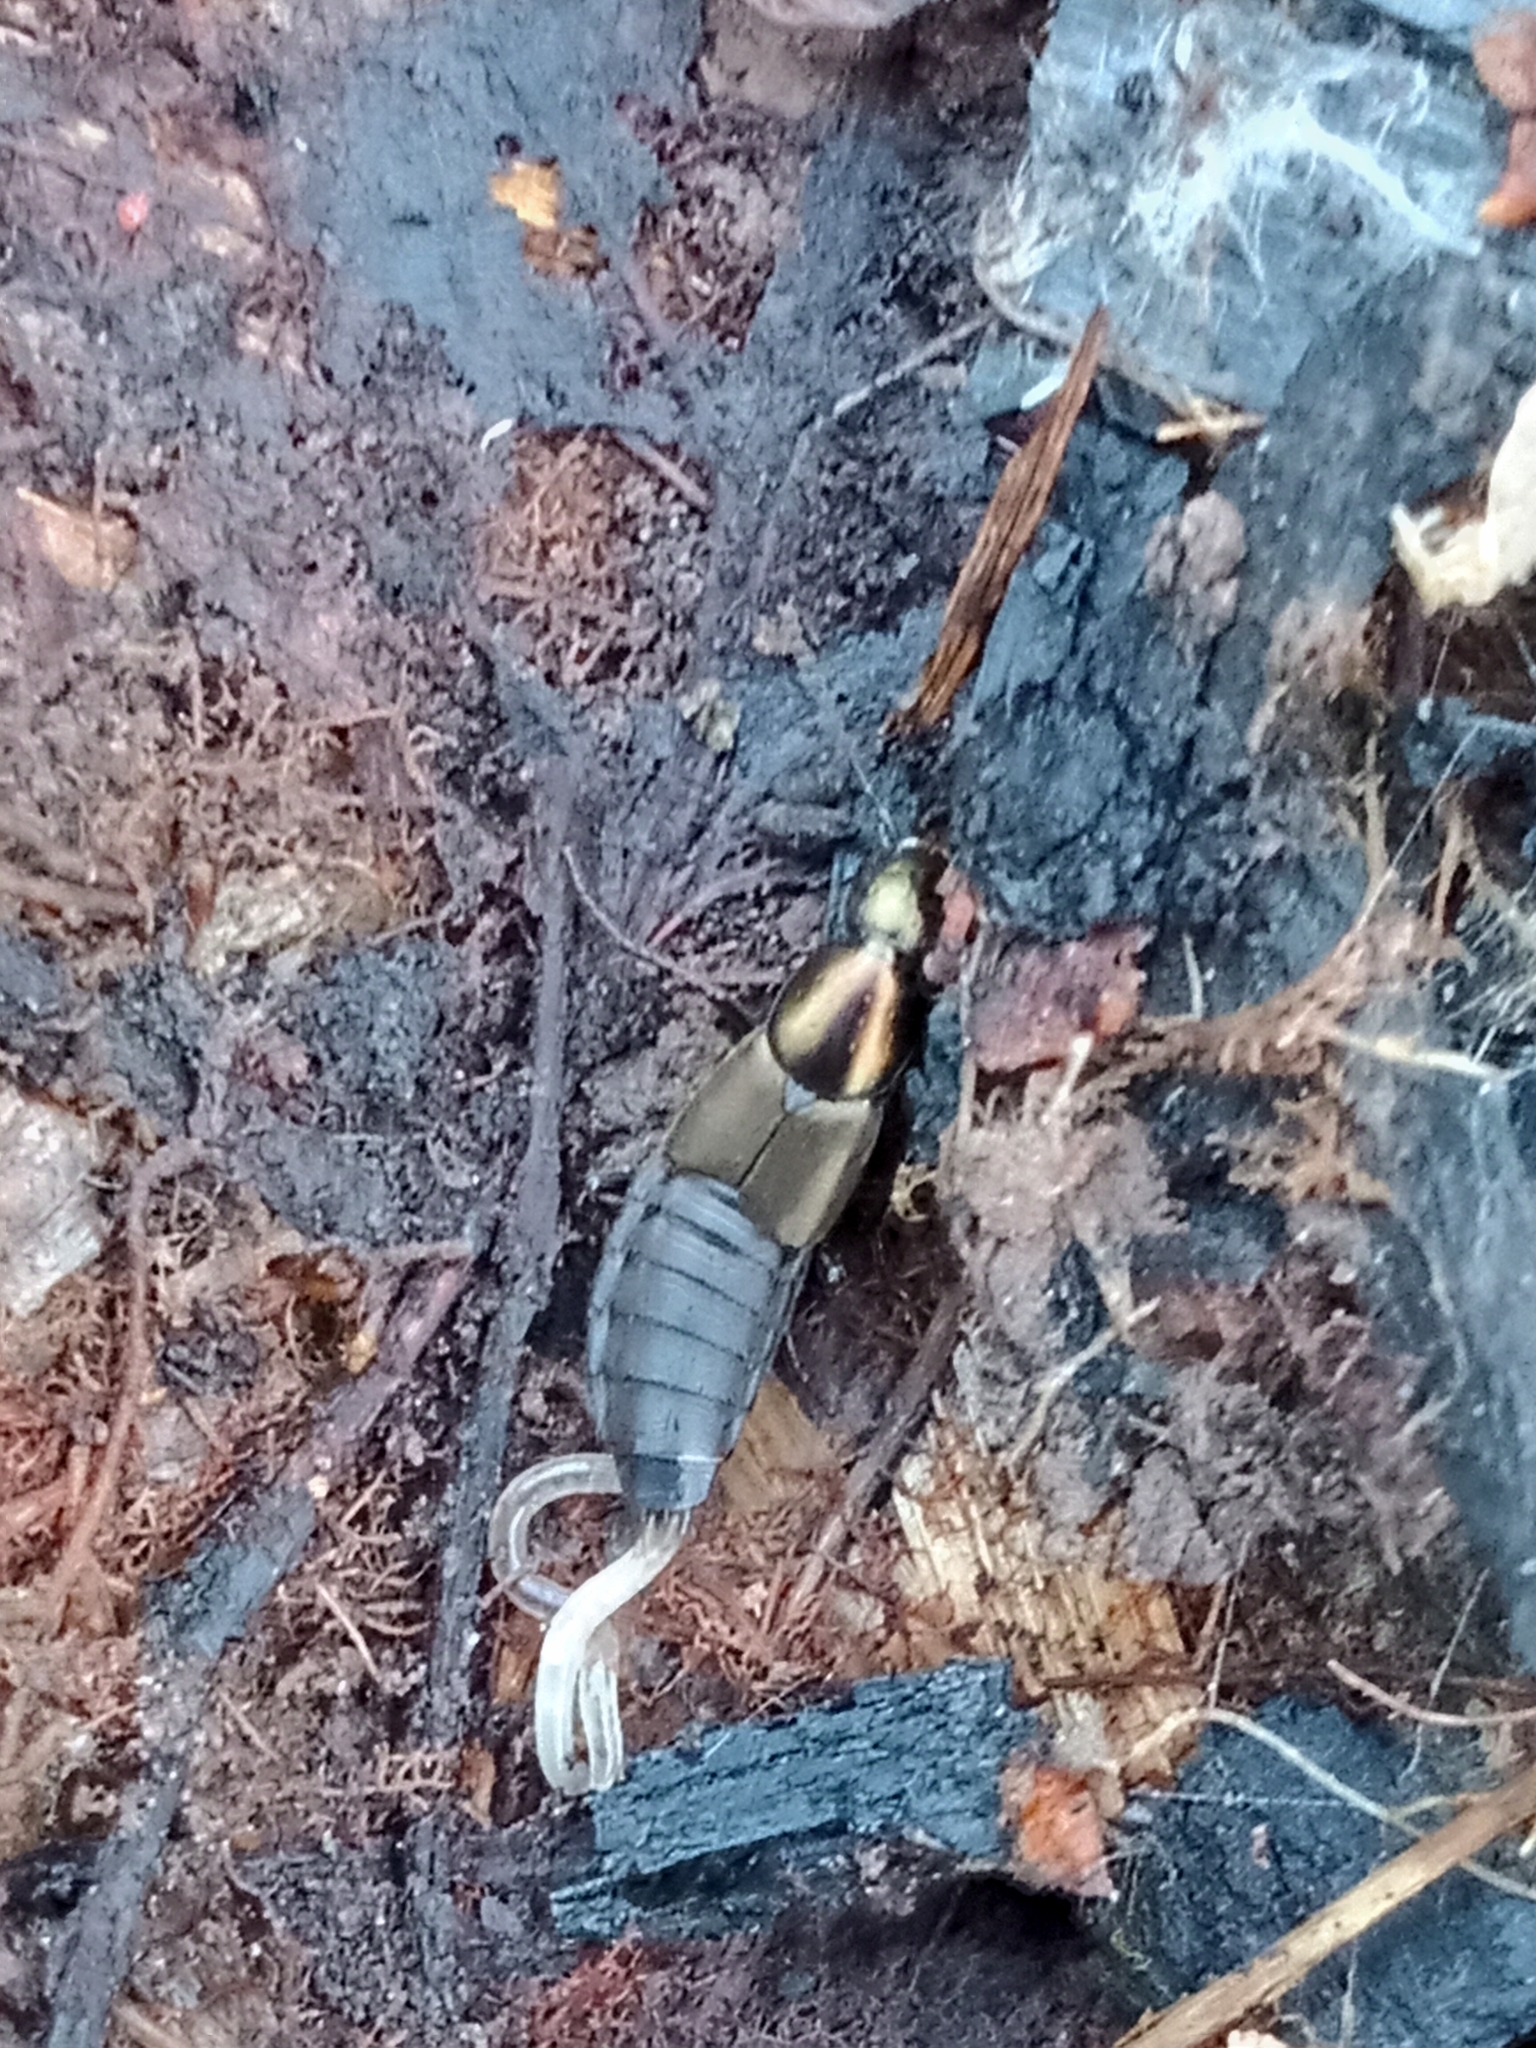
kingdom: Animalia
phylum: Arthropoda
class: Insecta
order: Coleoptera
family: Staphylinidae
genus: Philonthus
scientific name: Philonthus decorus
